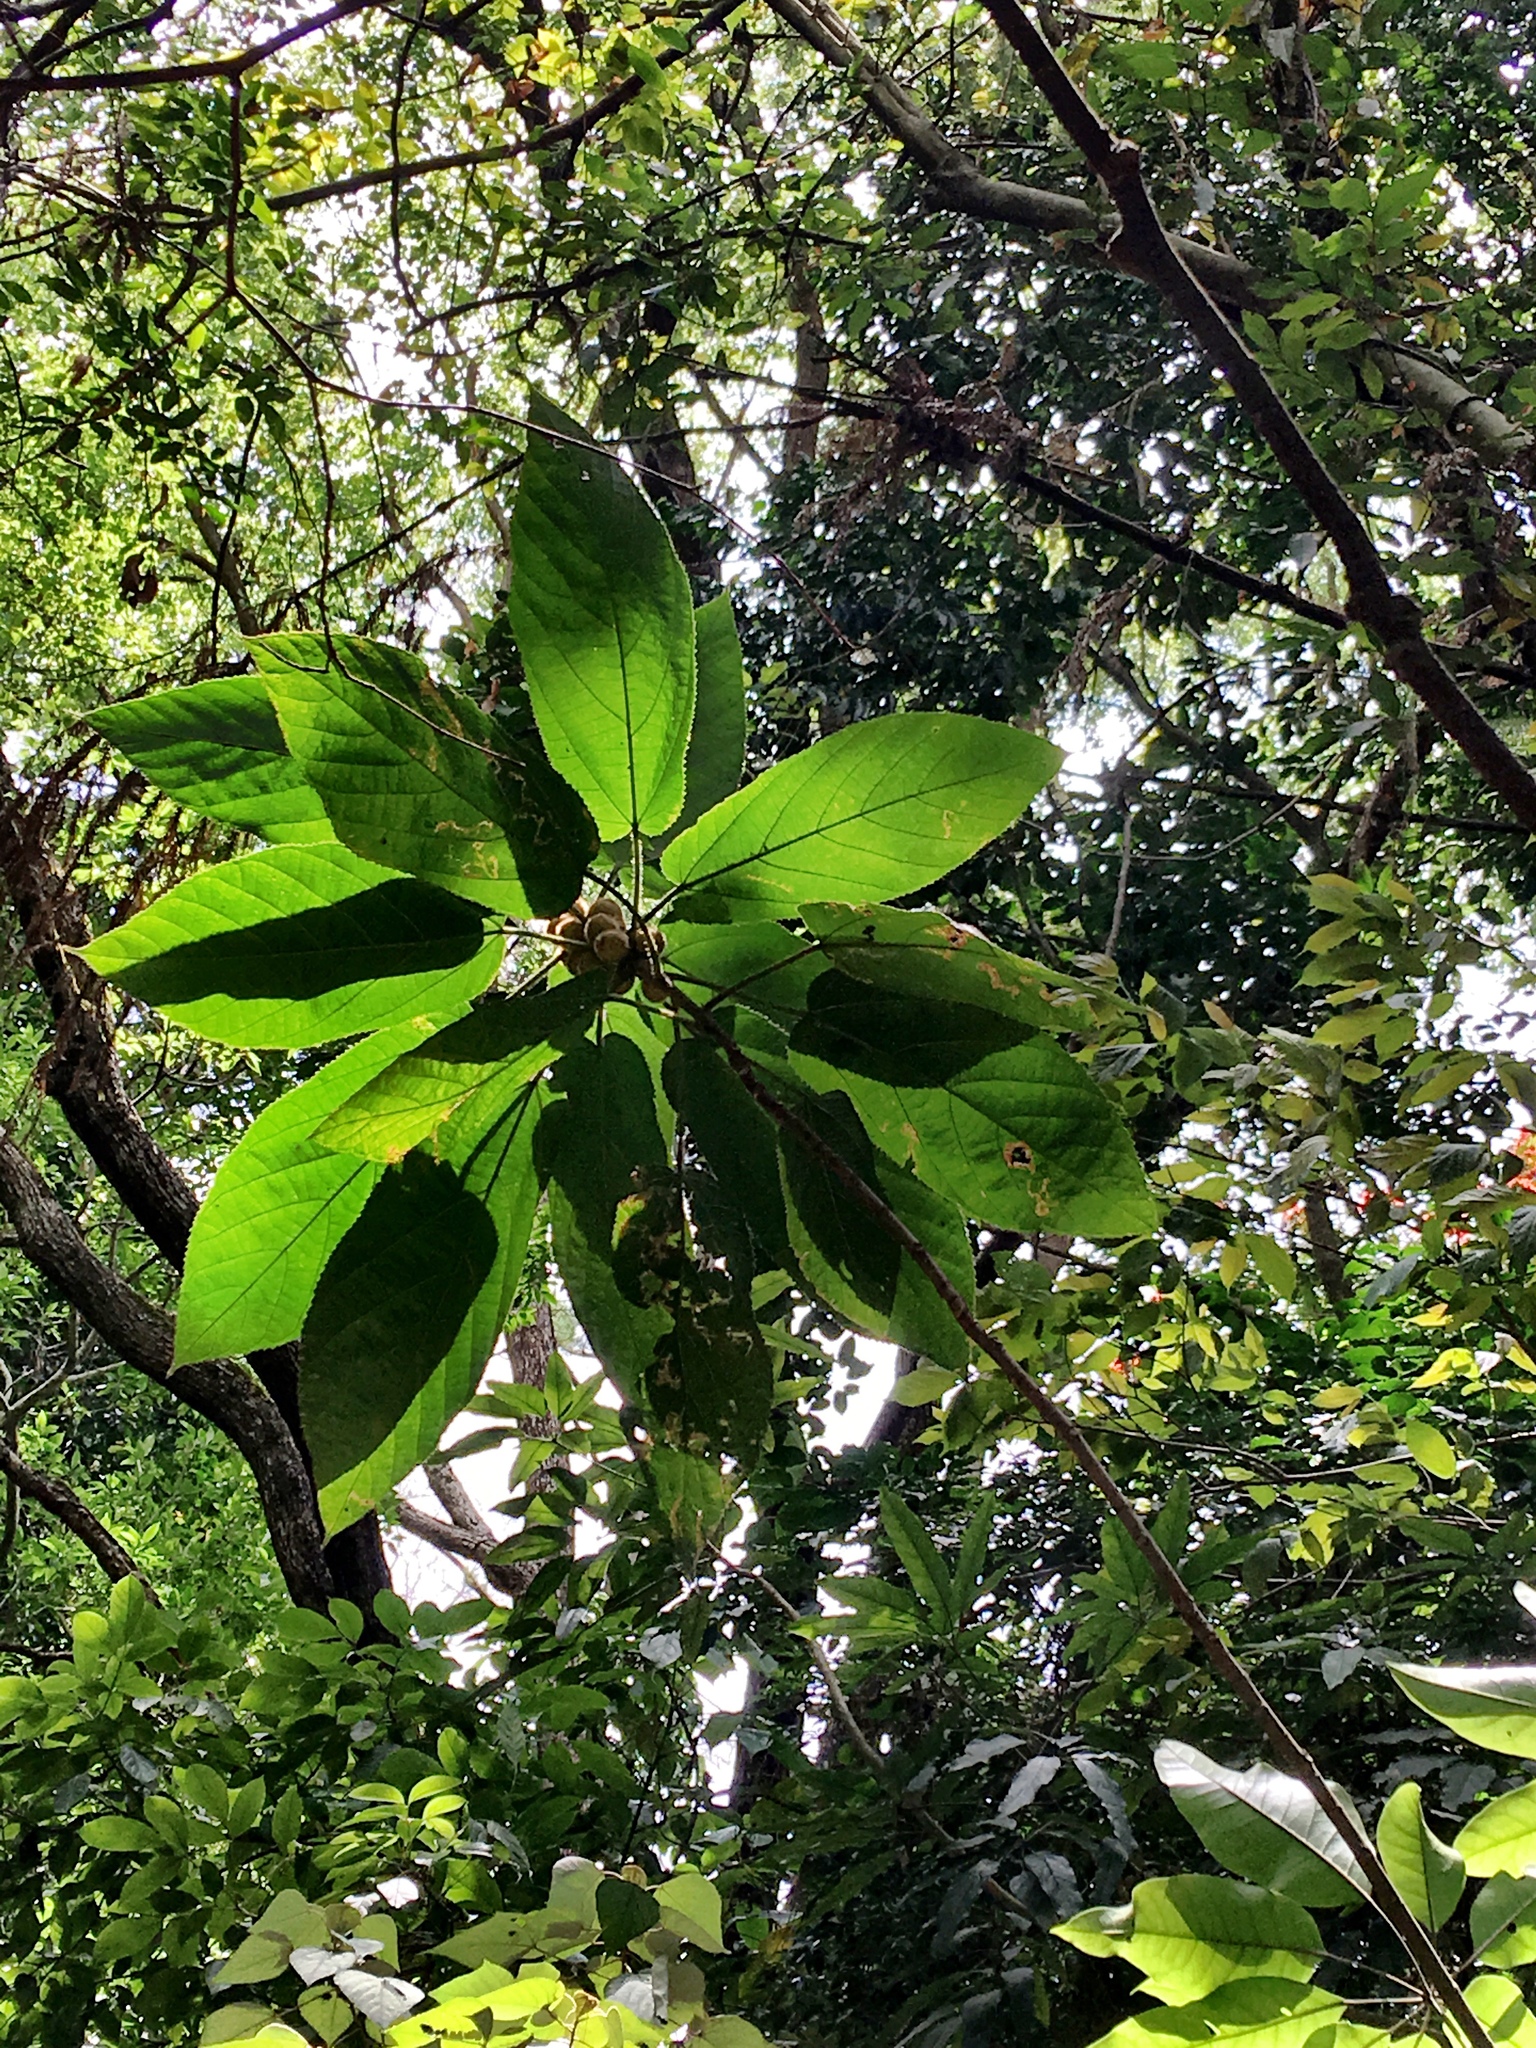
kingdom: Plantae
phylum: Tracheophyta
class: Magnoliopsida
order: Rosales
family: Moraceae
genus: Ficus
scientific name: Ficus simplicissima
